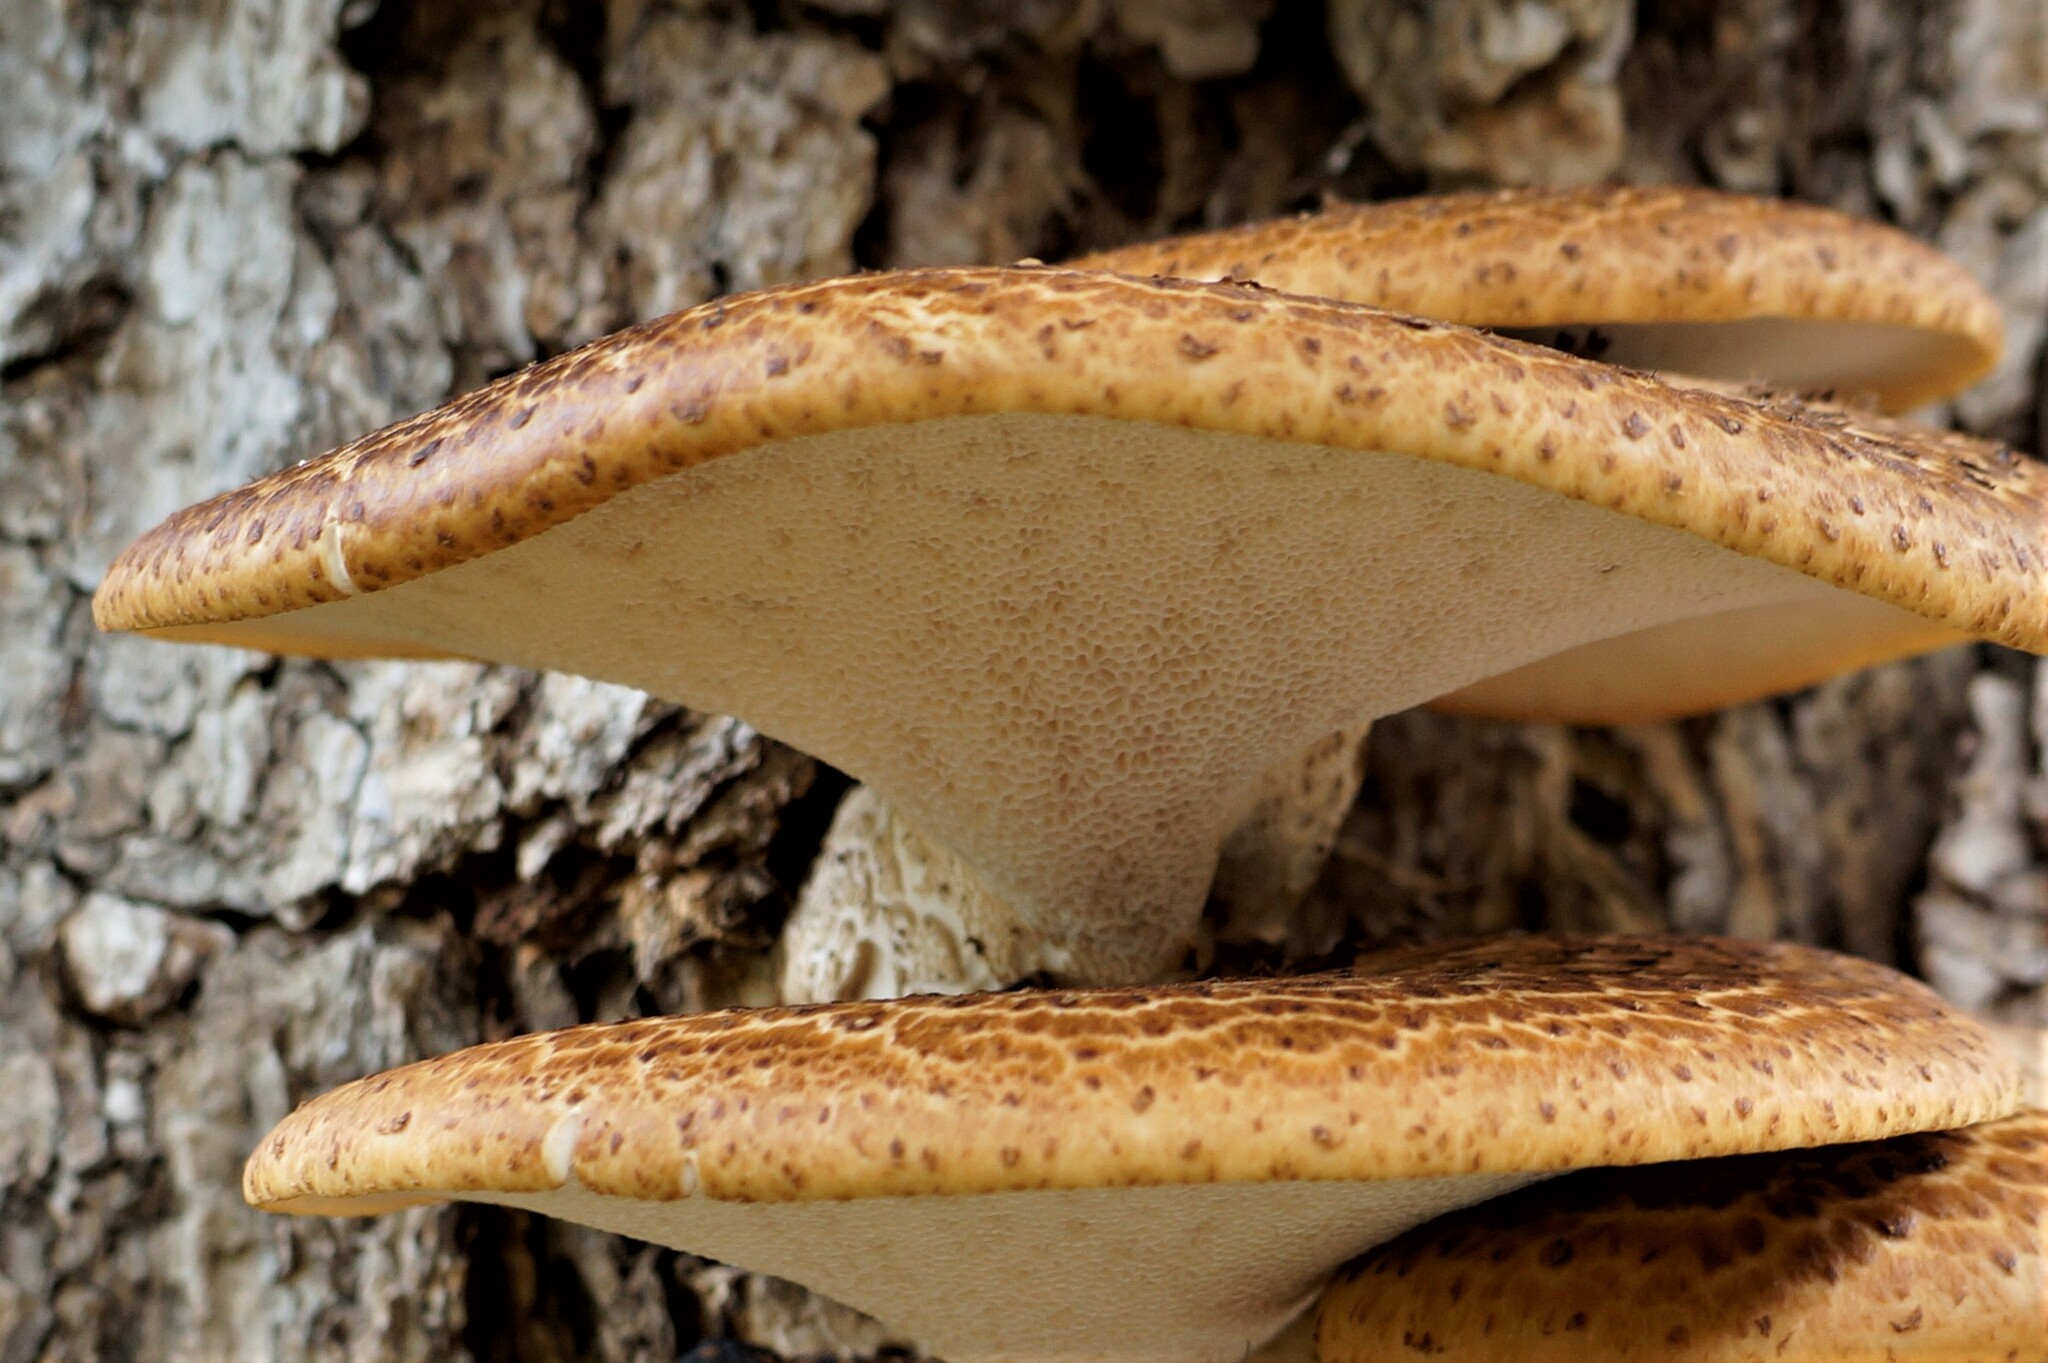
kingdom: Fungi
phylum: Basidiomycota
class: Agaricomycetes
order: Polyporales
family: Polyporaceae
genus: Cerioporus
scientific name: Cerioporus squamosus
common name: Dryad's saddle
